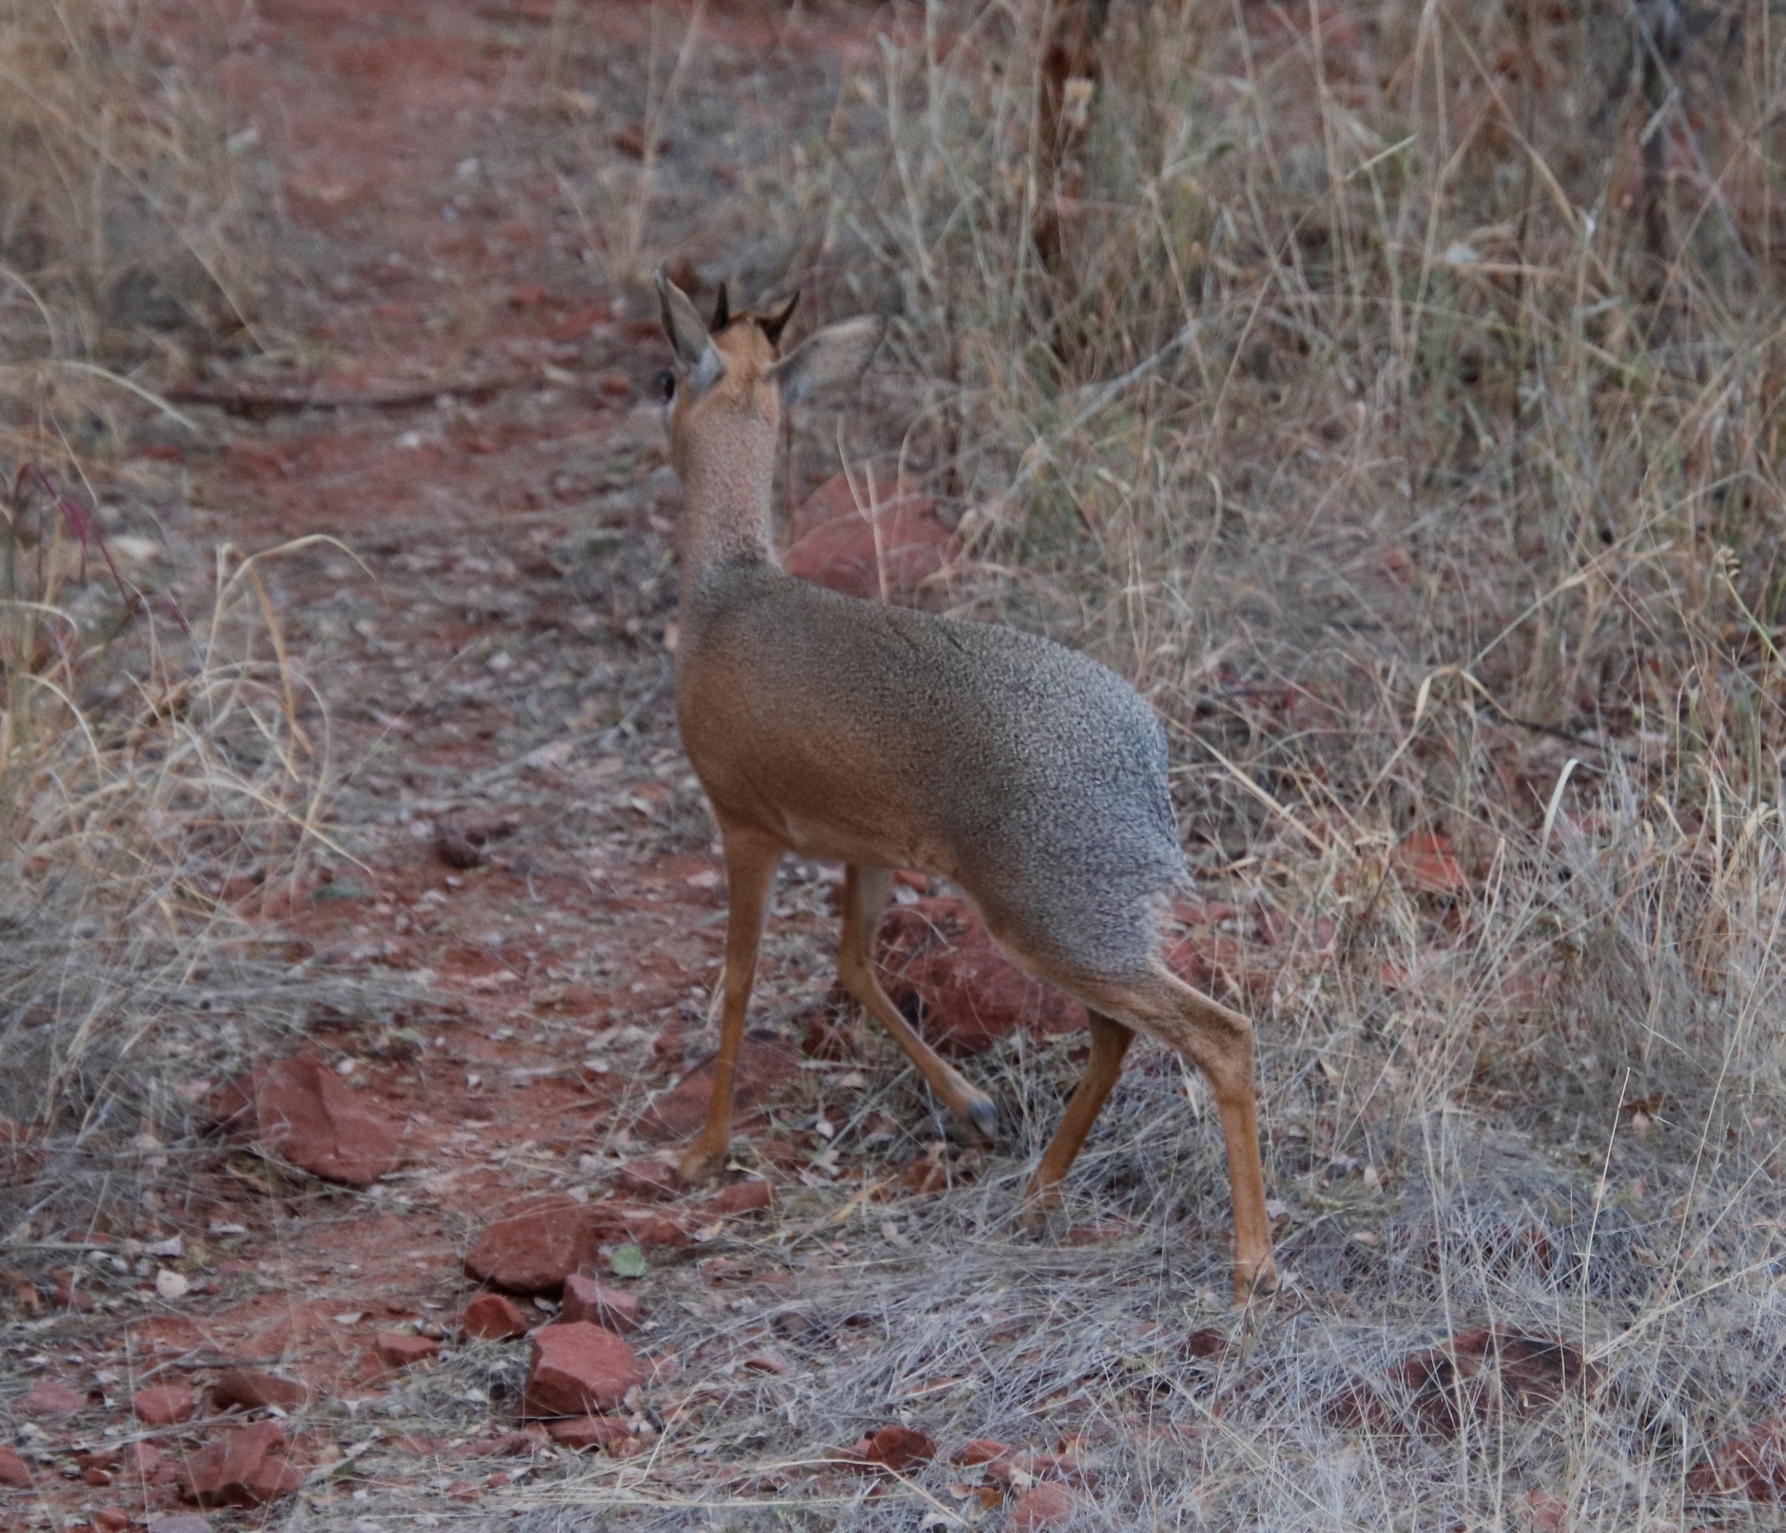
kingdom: Animalia
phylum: Chordata
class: Mammalia
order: Artiodactyla
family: Bovidae
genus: Madoqua
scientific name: Madoqua kirkii
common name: Kirk's dik-dik
